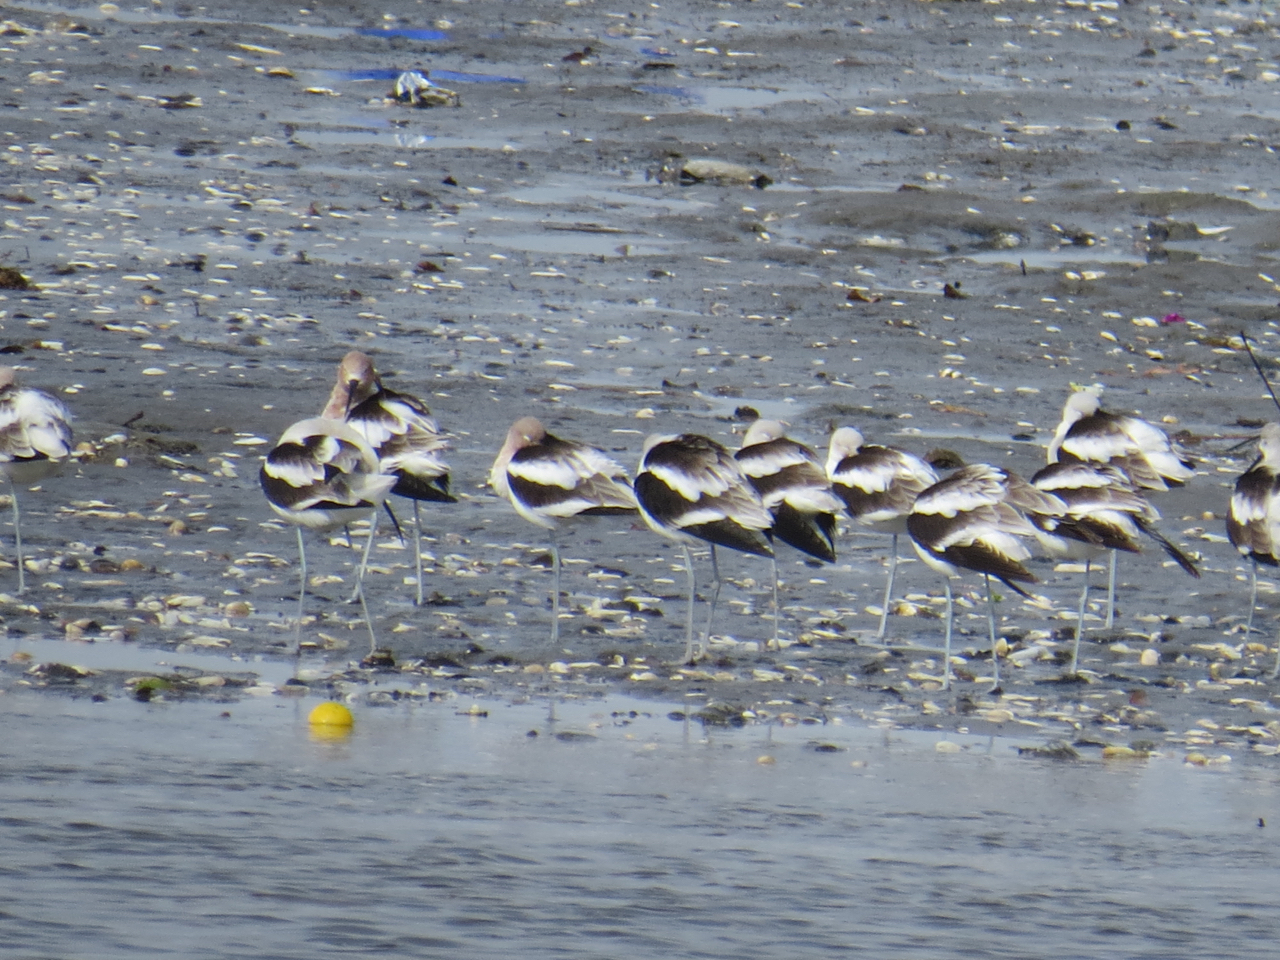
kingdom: Animalia
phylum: Chordata
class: Aves
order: Charadriiformes
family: Recurvirostridae
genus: Recurvirostra
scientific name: Recurvirostra americana
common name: American avocet
